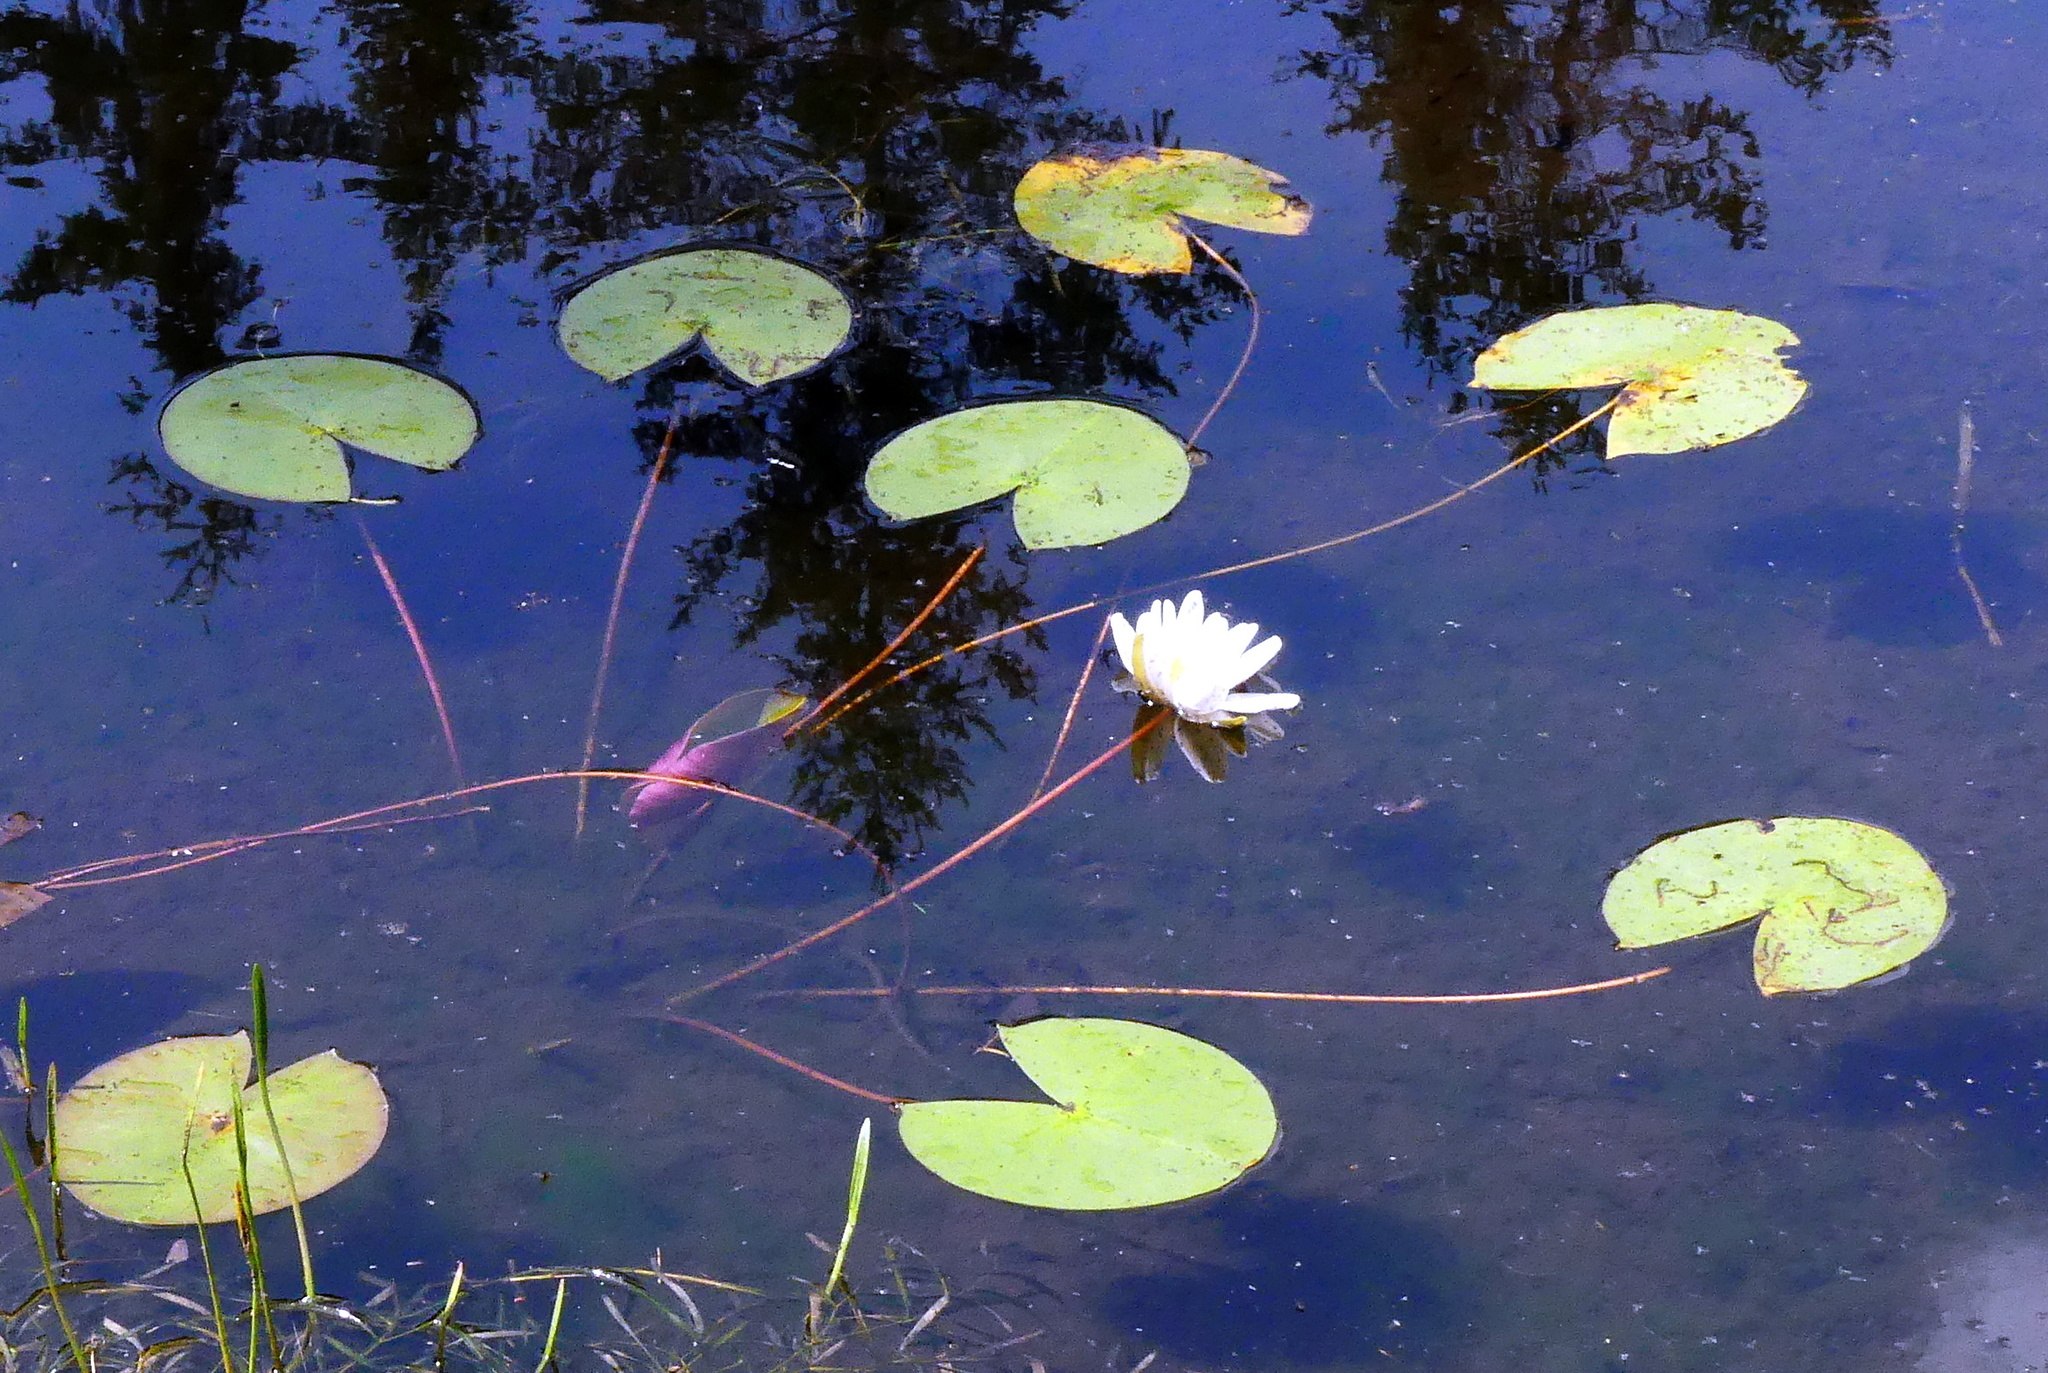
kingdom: Plantae
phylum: Tracheophyta
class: Magnoliopsida
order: Nymphaeales
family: Nymphaeaceae
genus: Nymphaea
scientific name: Nymphaea odorata
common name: Fragrant water-lily
